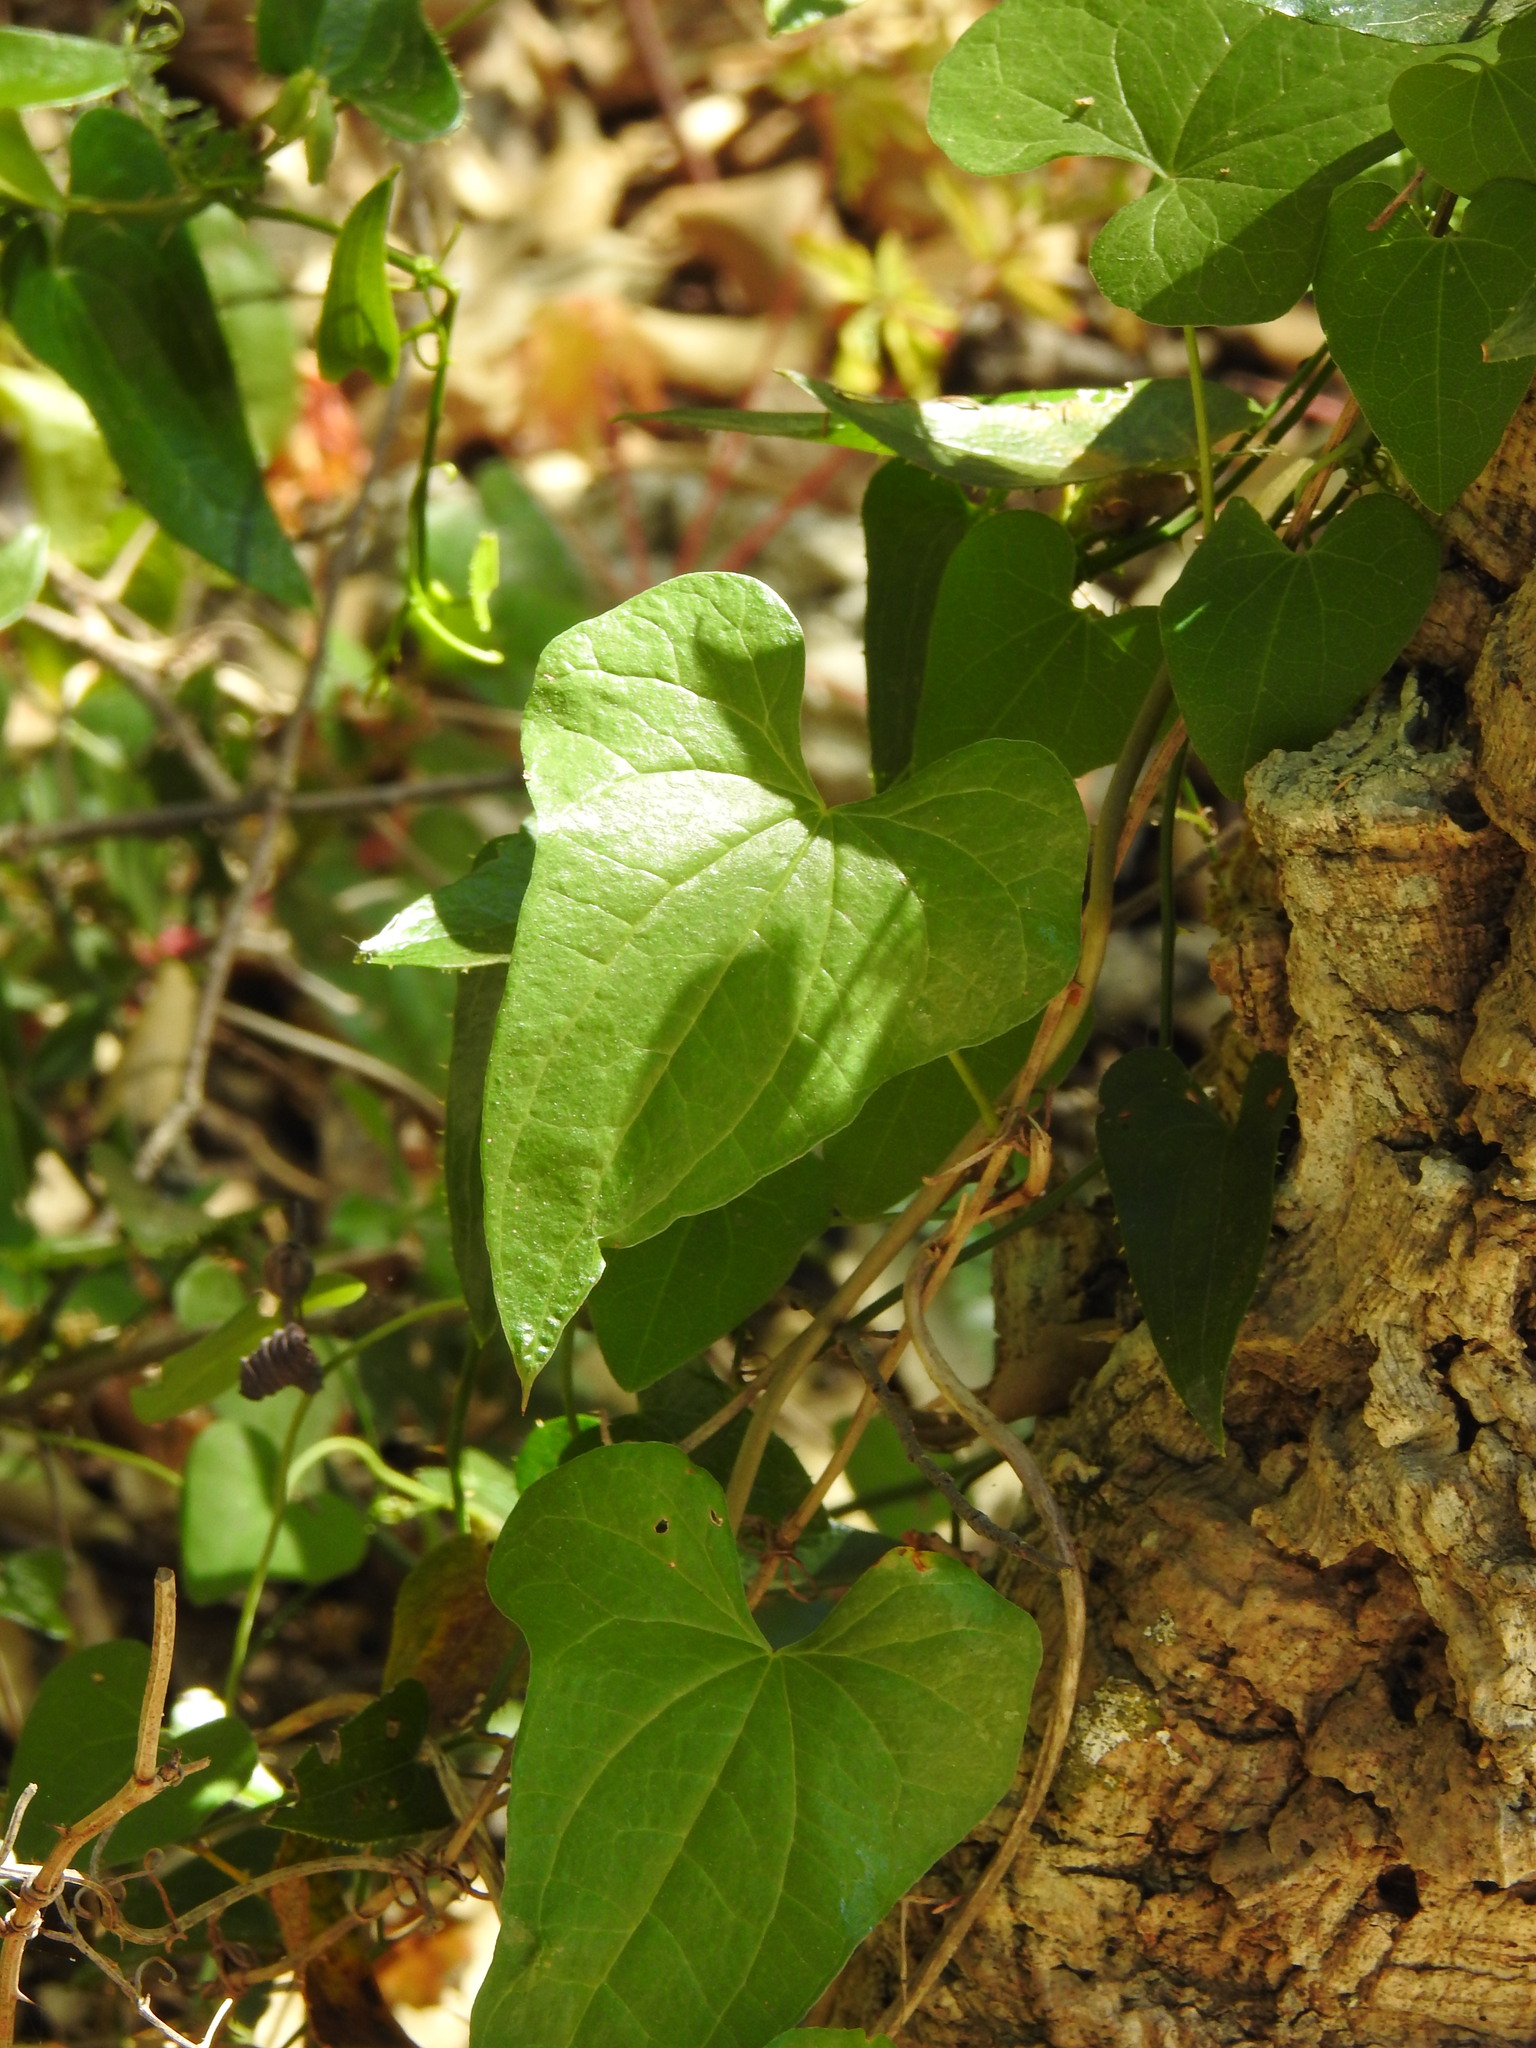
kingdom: Plantae
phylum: Tracheophyta
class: Liliopsida
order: Dioscoreales
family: Dioscoreaceae
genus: Dioscorea
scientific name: Dioscorea communis
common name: Black-bindweed
